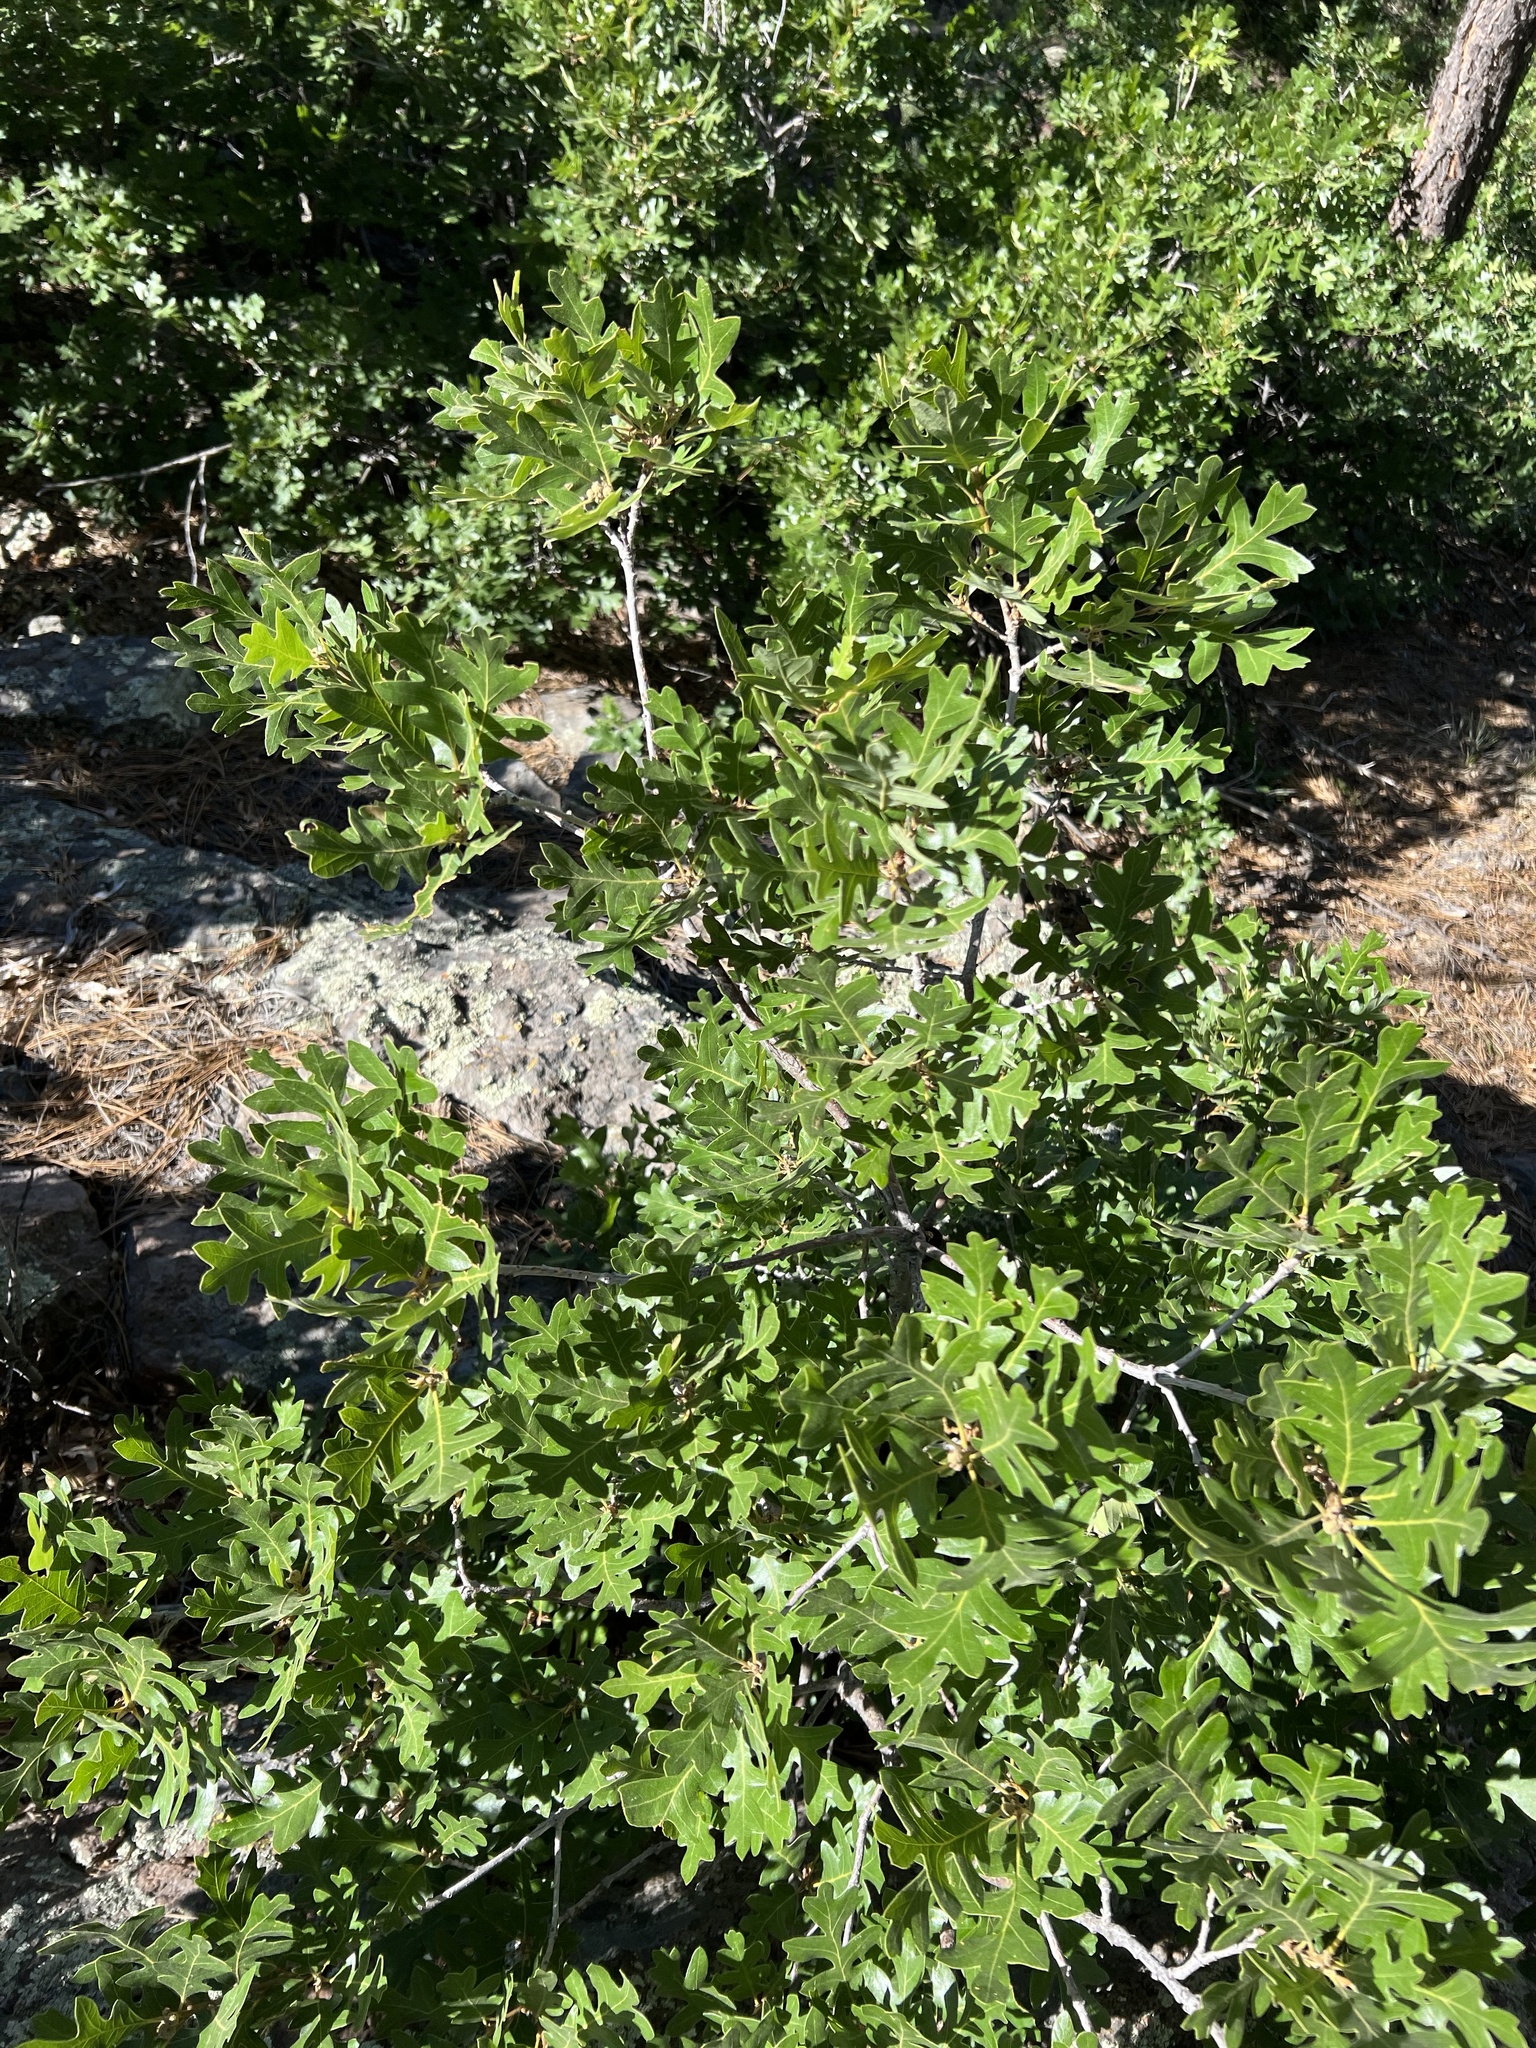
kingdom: Plantae
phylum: Tracheophyta
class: Magnoliopsida
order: Fagales
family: Fagaceae
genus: Quercus
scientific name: Quercus gambelii
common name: Gambel oak
